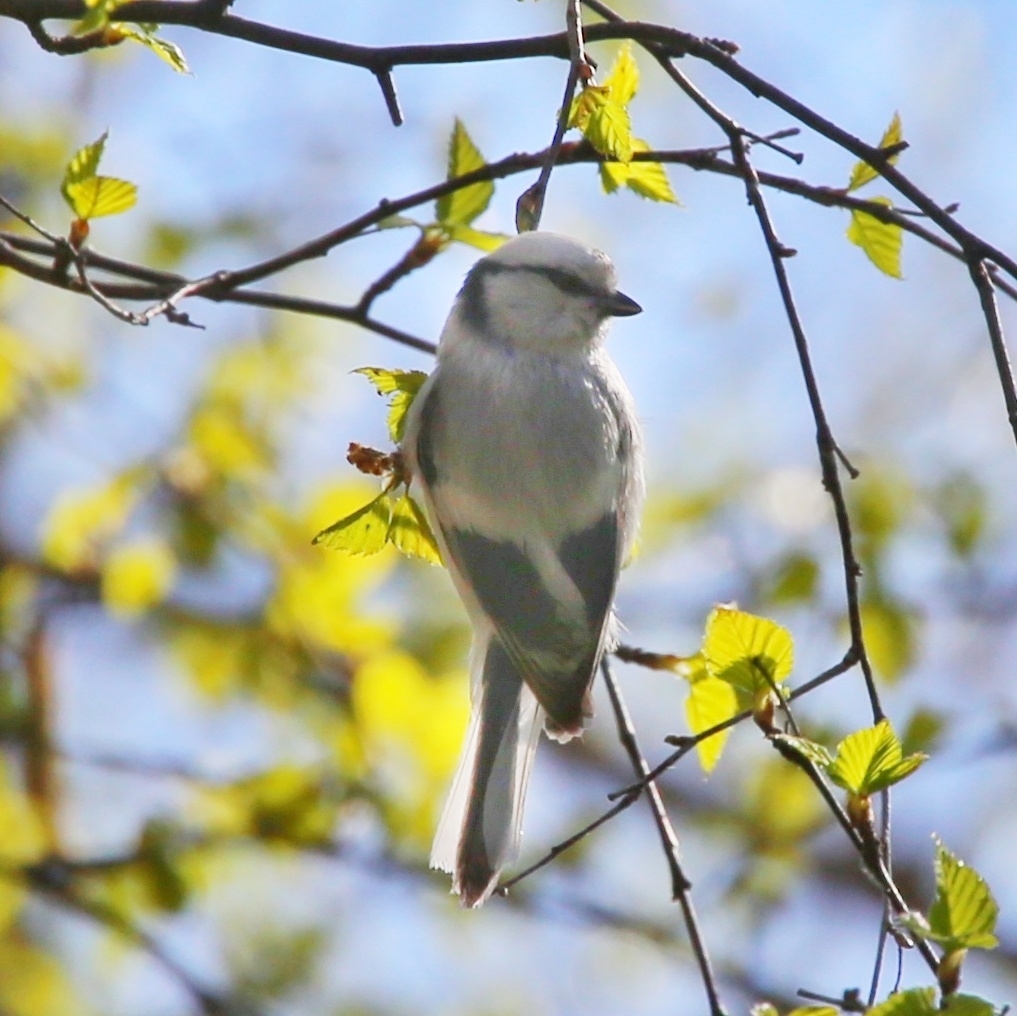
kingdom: Animalia
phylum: Chordata
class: Aves
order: Passeriformes
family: Paridae
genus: Cyanistes
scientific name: Cyanistes cyanus
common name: Azure tit
